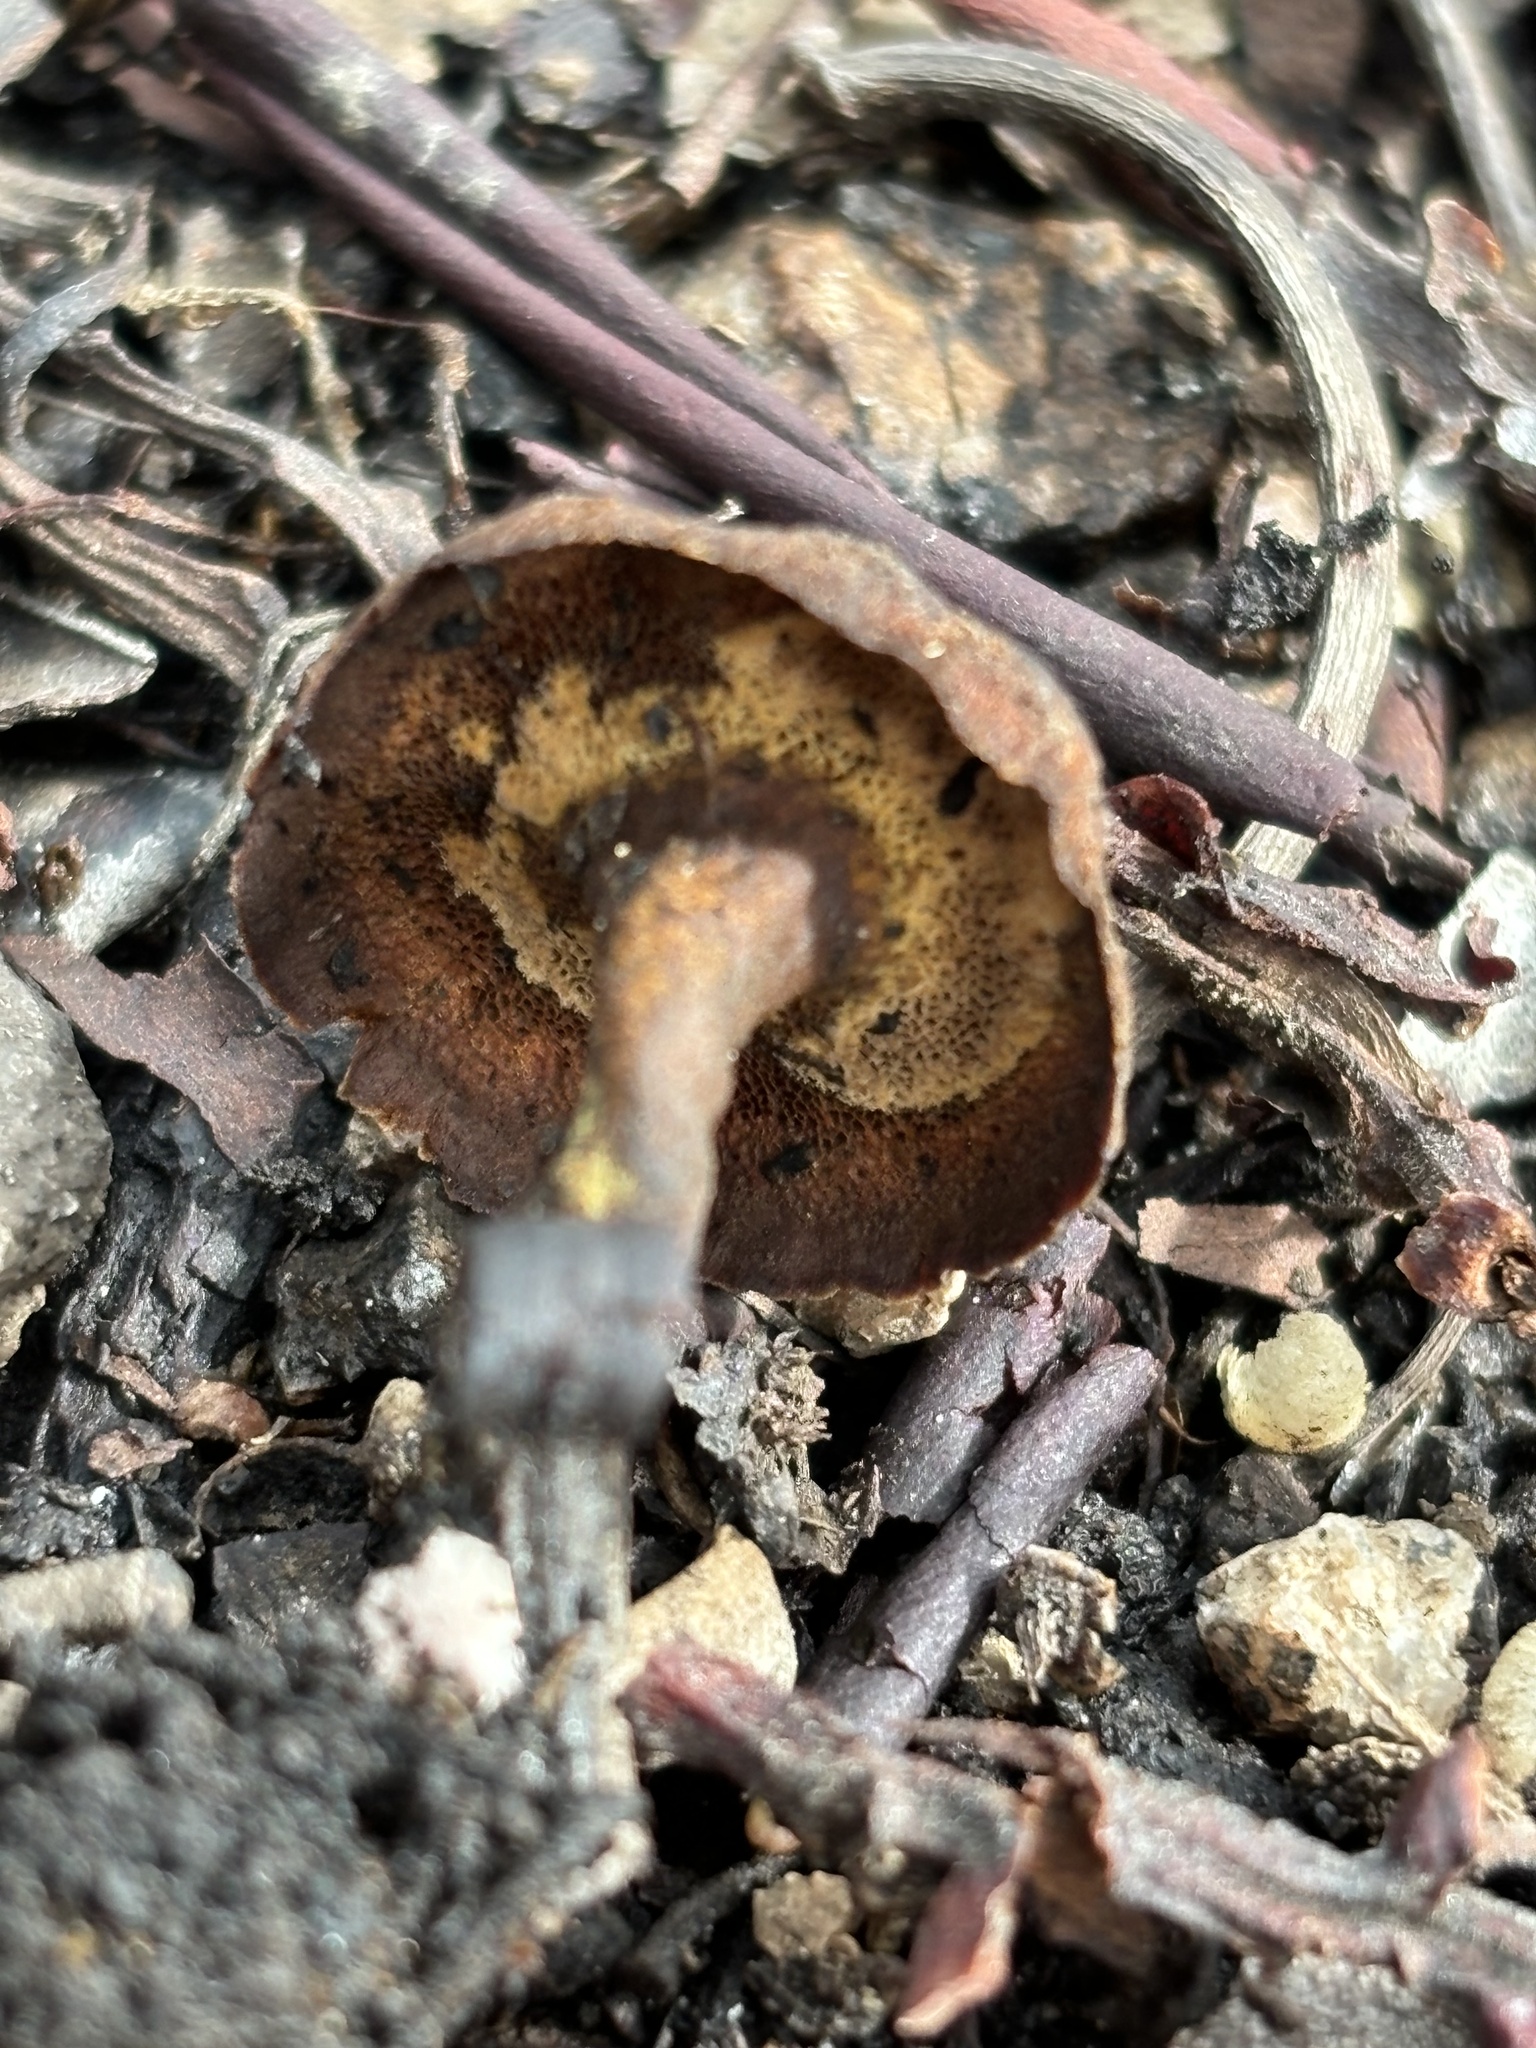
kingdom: Fungi
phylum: Basidiomycota
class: Agaricomycetes
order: Hymenochaetales
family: Hymenochaetaceae
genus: Coltricia
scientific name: Coltricia perennis
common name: Tiger's eye
